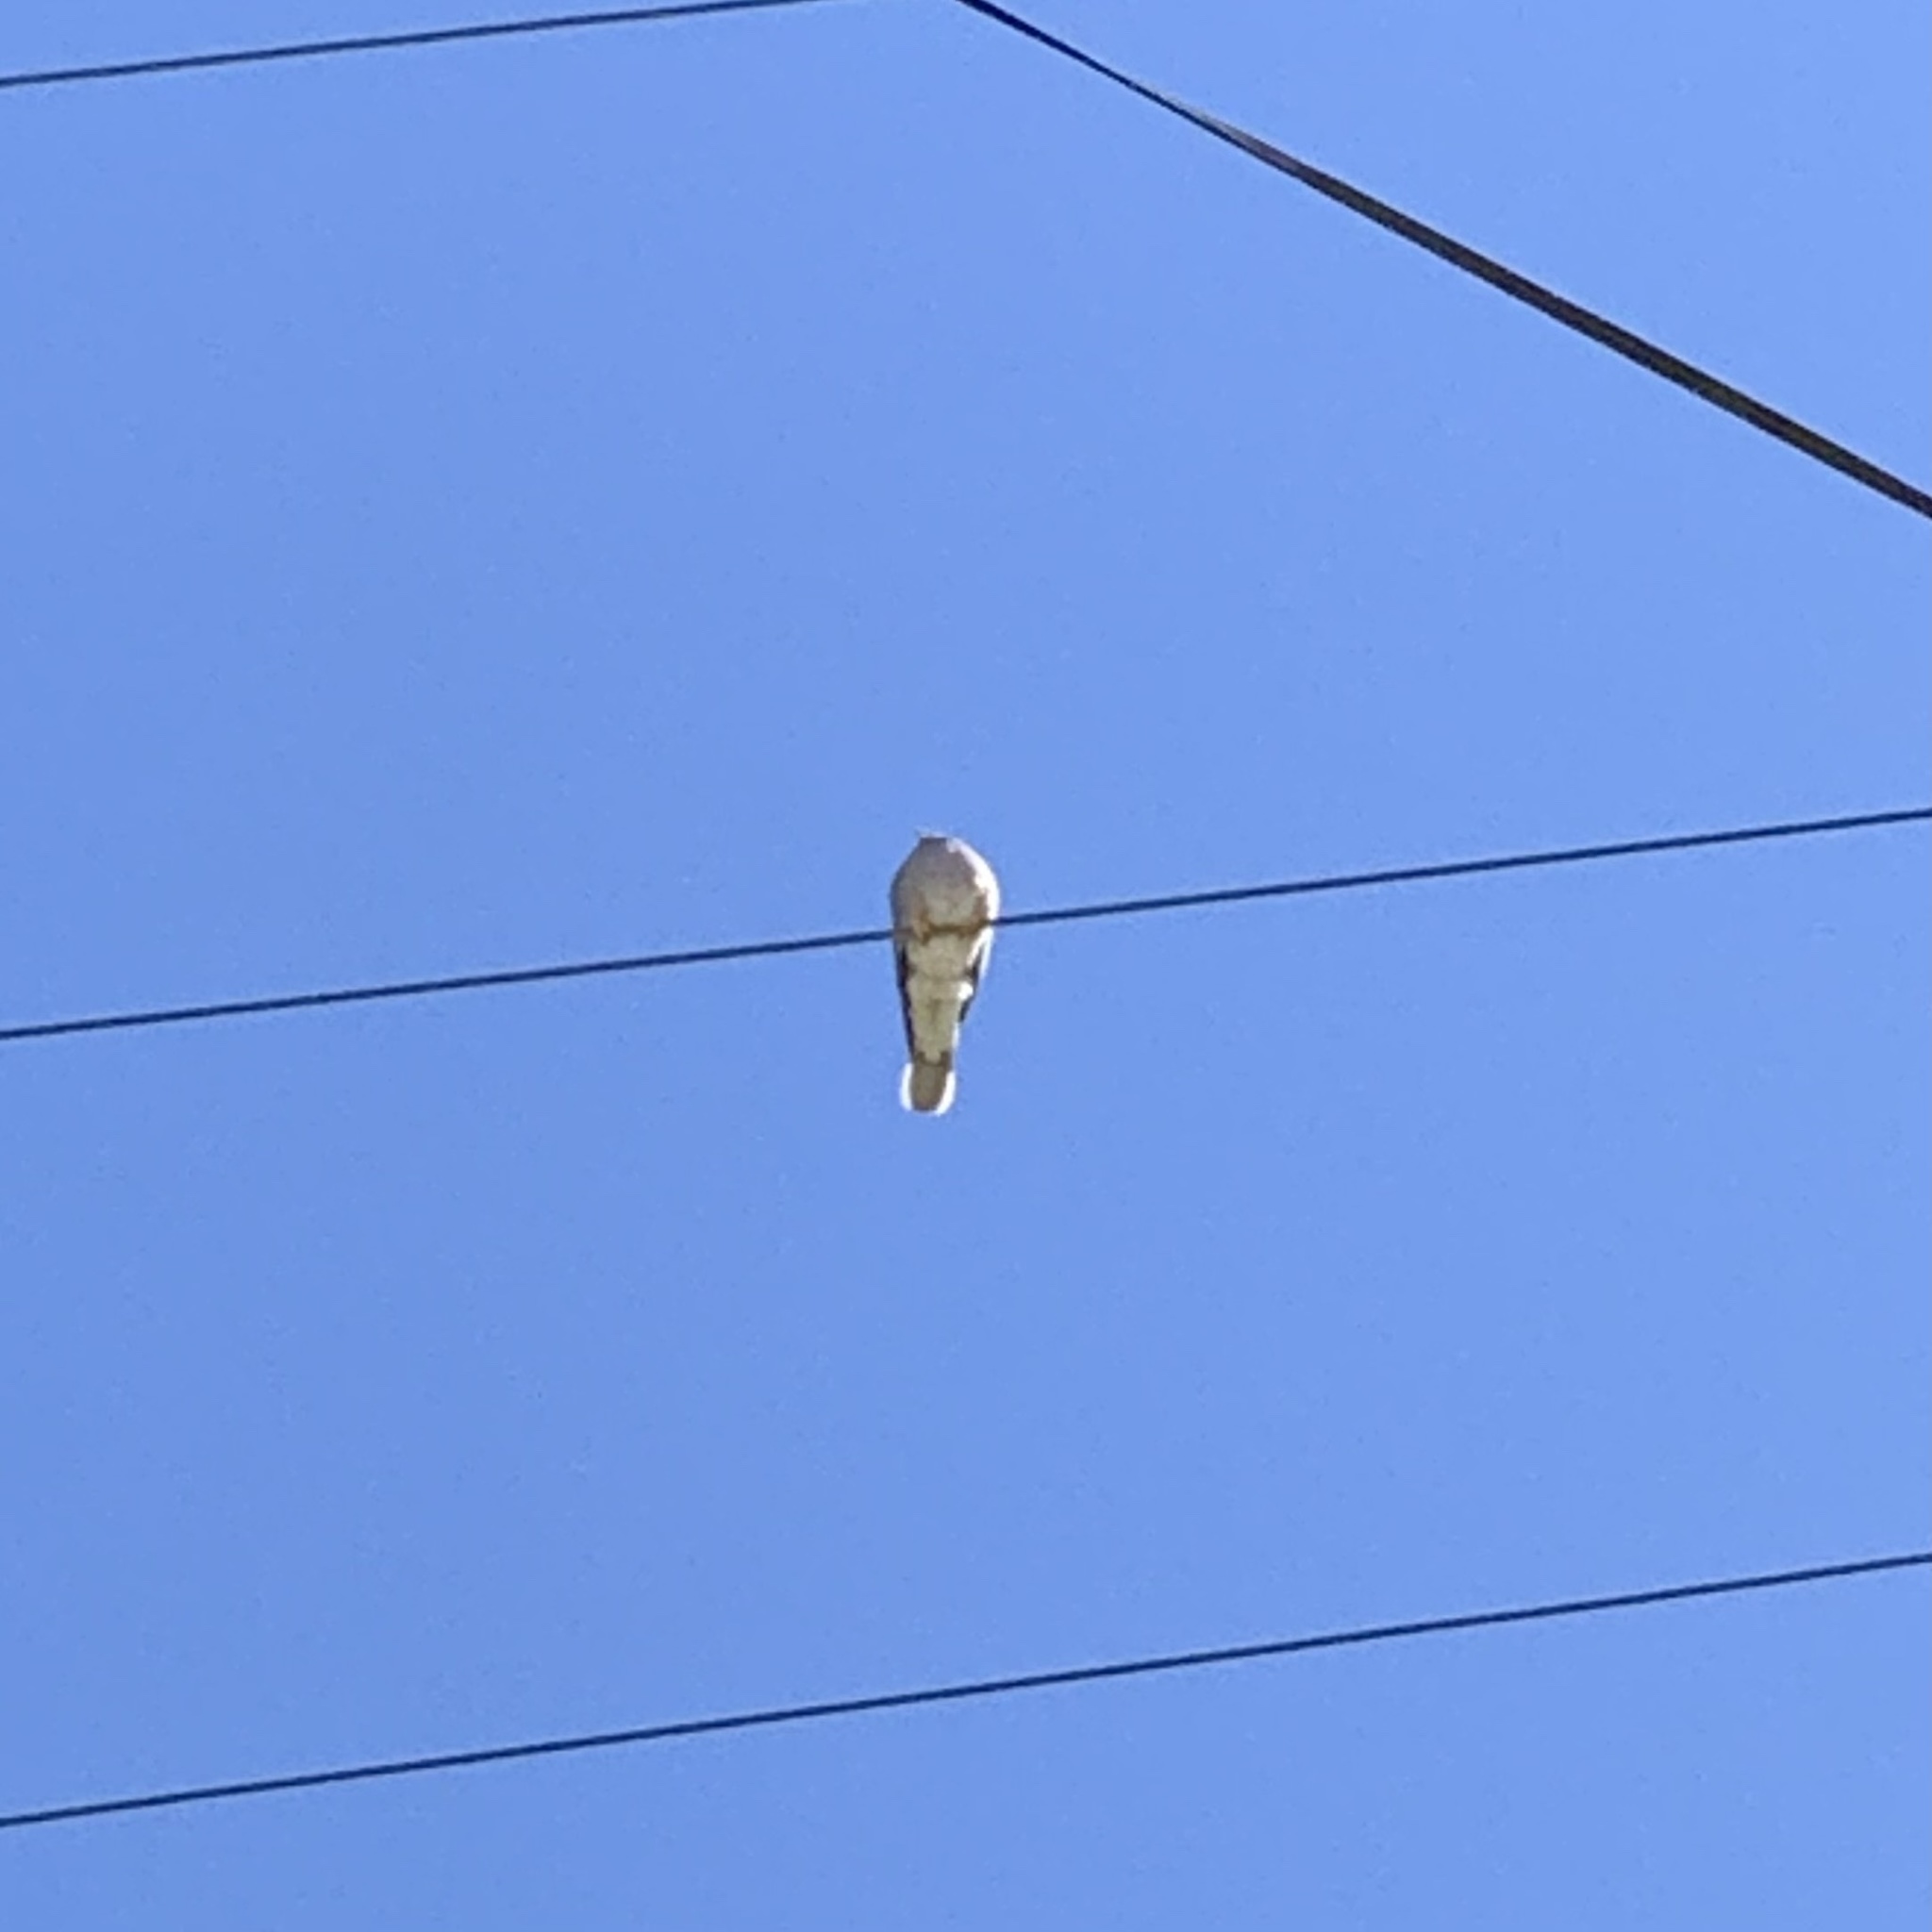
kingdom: Animalia
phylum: Chordata
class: Aves
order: Columbiformes
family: Columbidae
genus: Patagioenas
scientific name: Patagioenas fasciata
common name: Band-tailed pigeon
